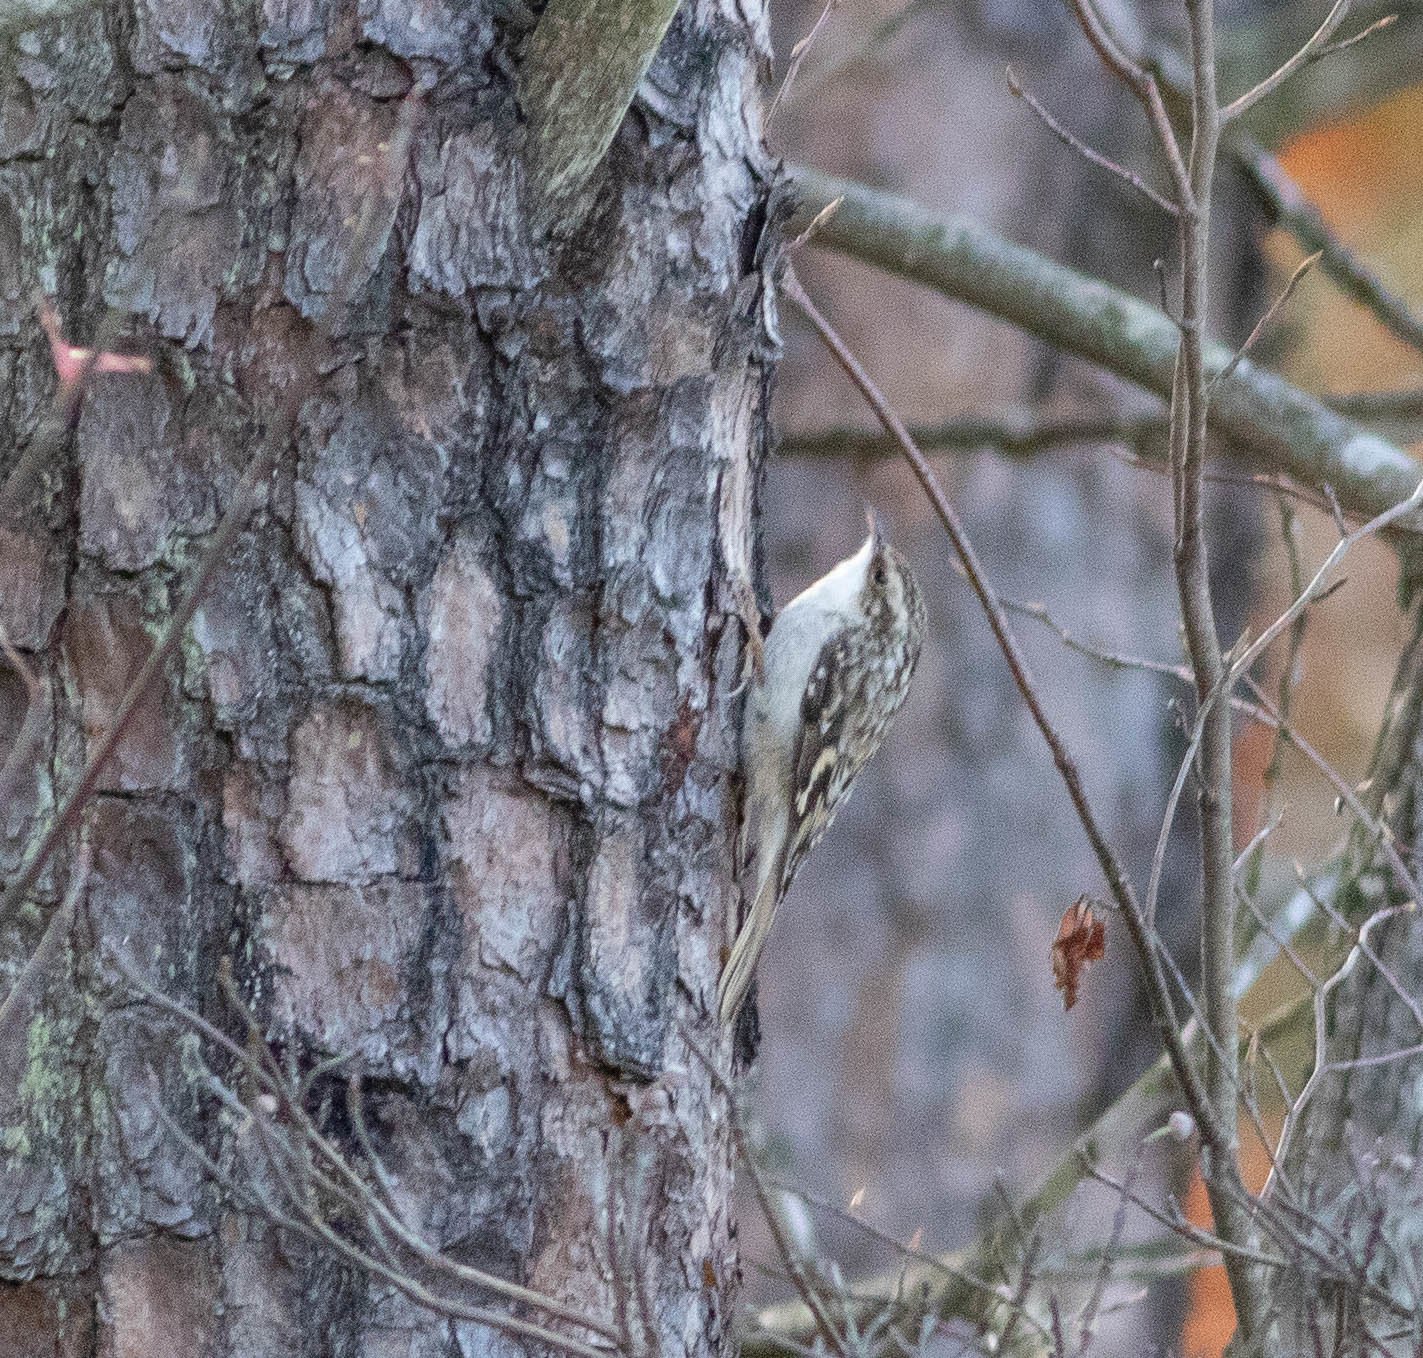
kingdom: Animalia
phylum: Chordata
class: Aves
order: Passeriformes
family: Certhiidae
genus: Certhia
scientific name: Certhia americana
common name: Brown creeper
